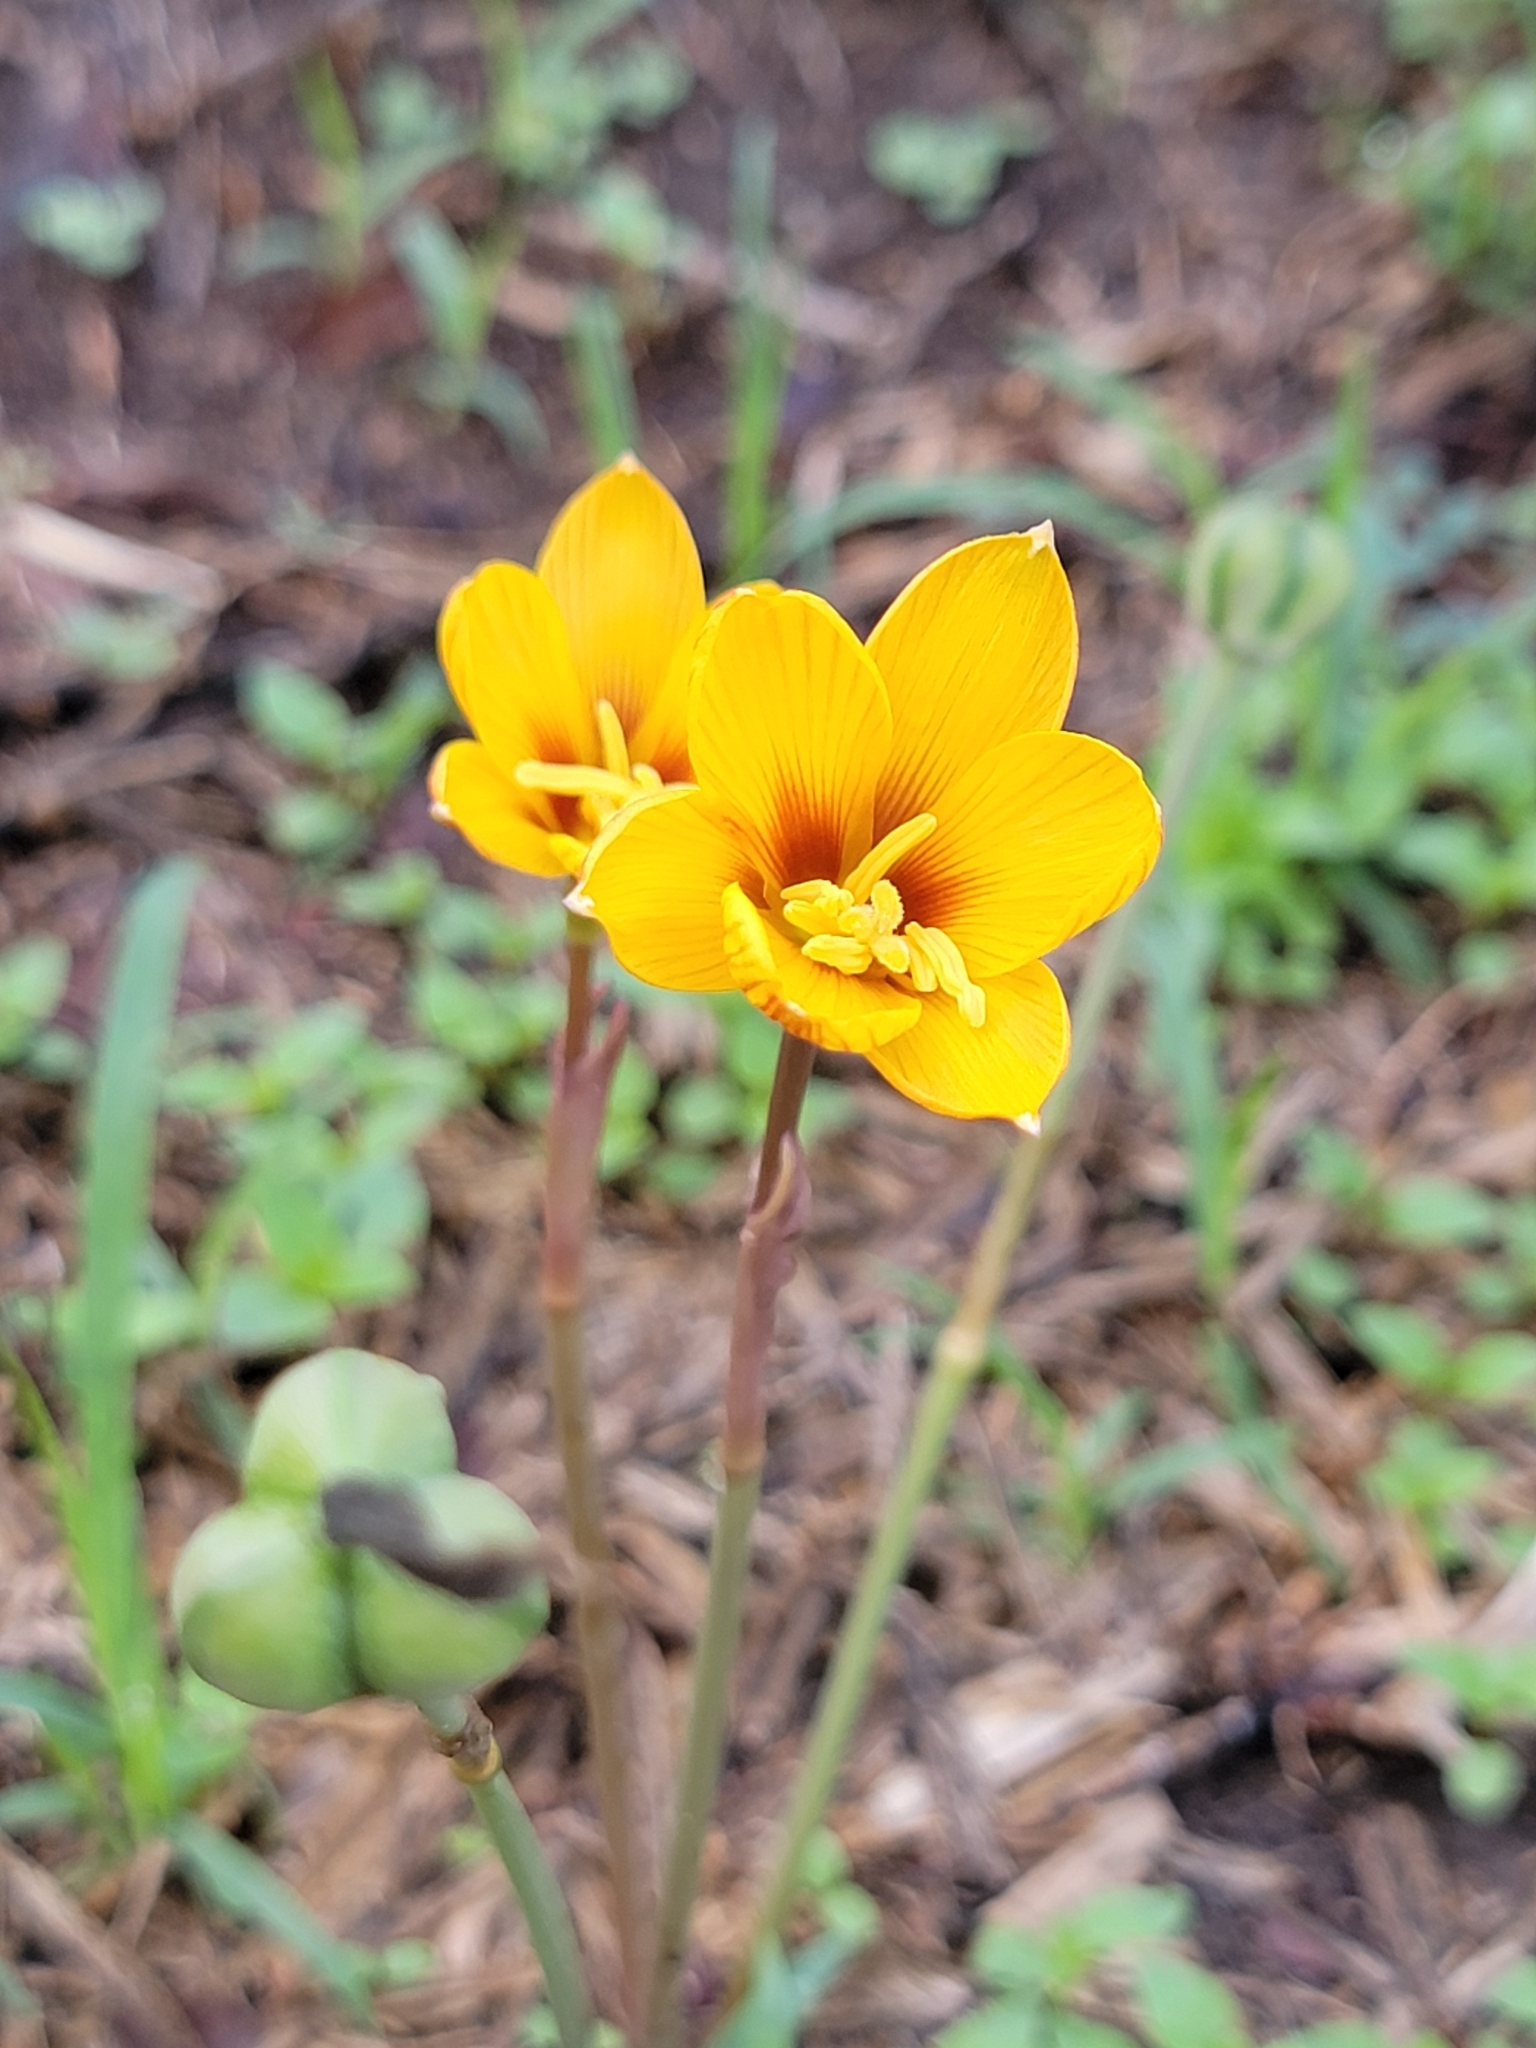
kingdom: Plantae
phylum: Tracheophyta
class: Liliopsida
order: Asparagales
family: Amaryllidaceae
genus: Zephyranthes
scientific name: Zephyranthes tubispatha
